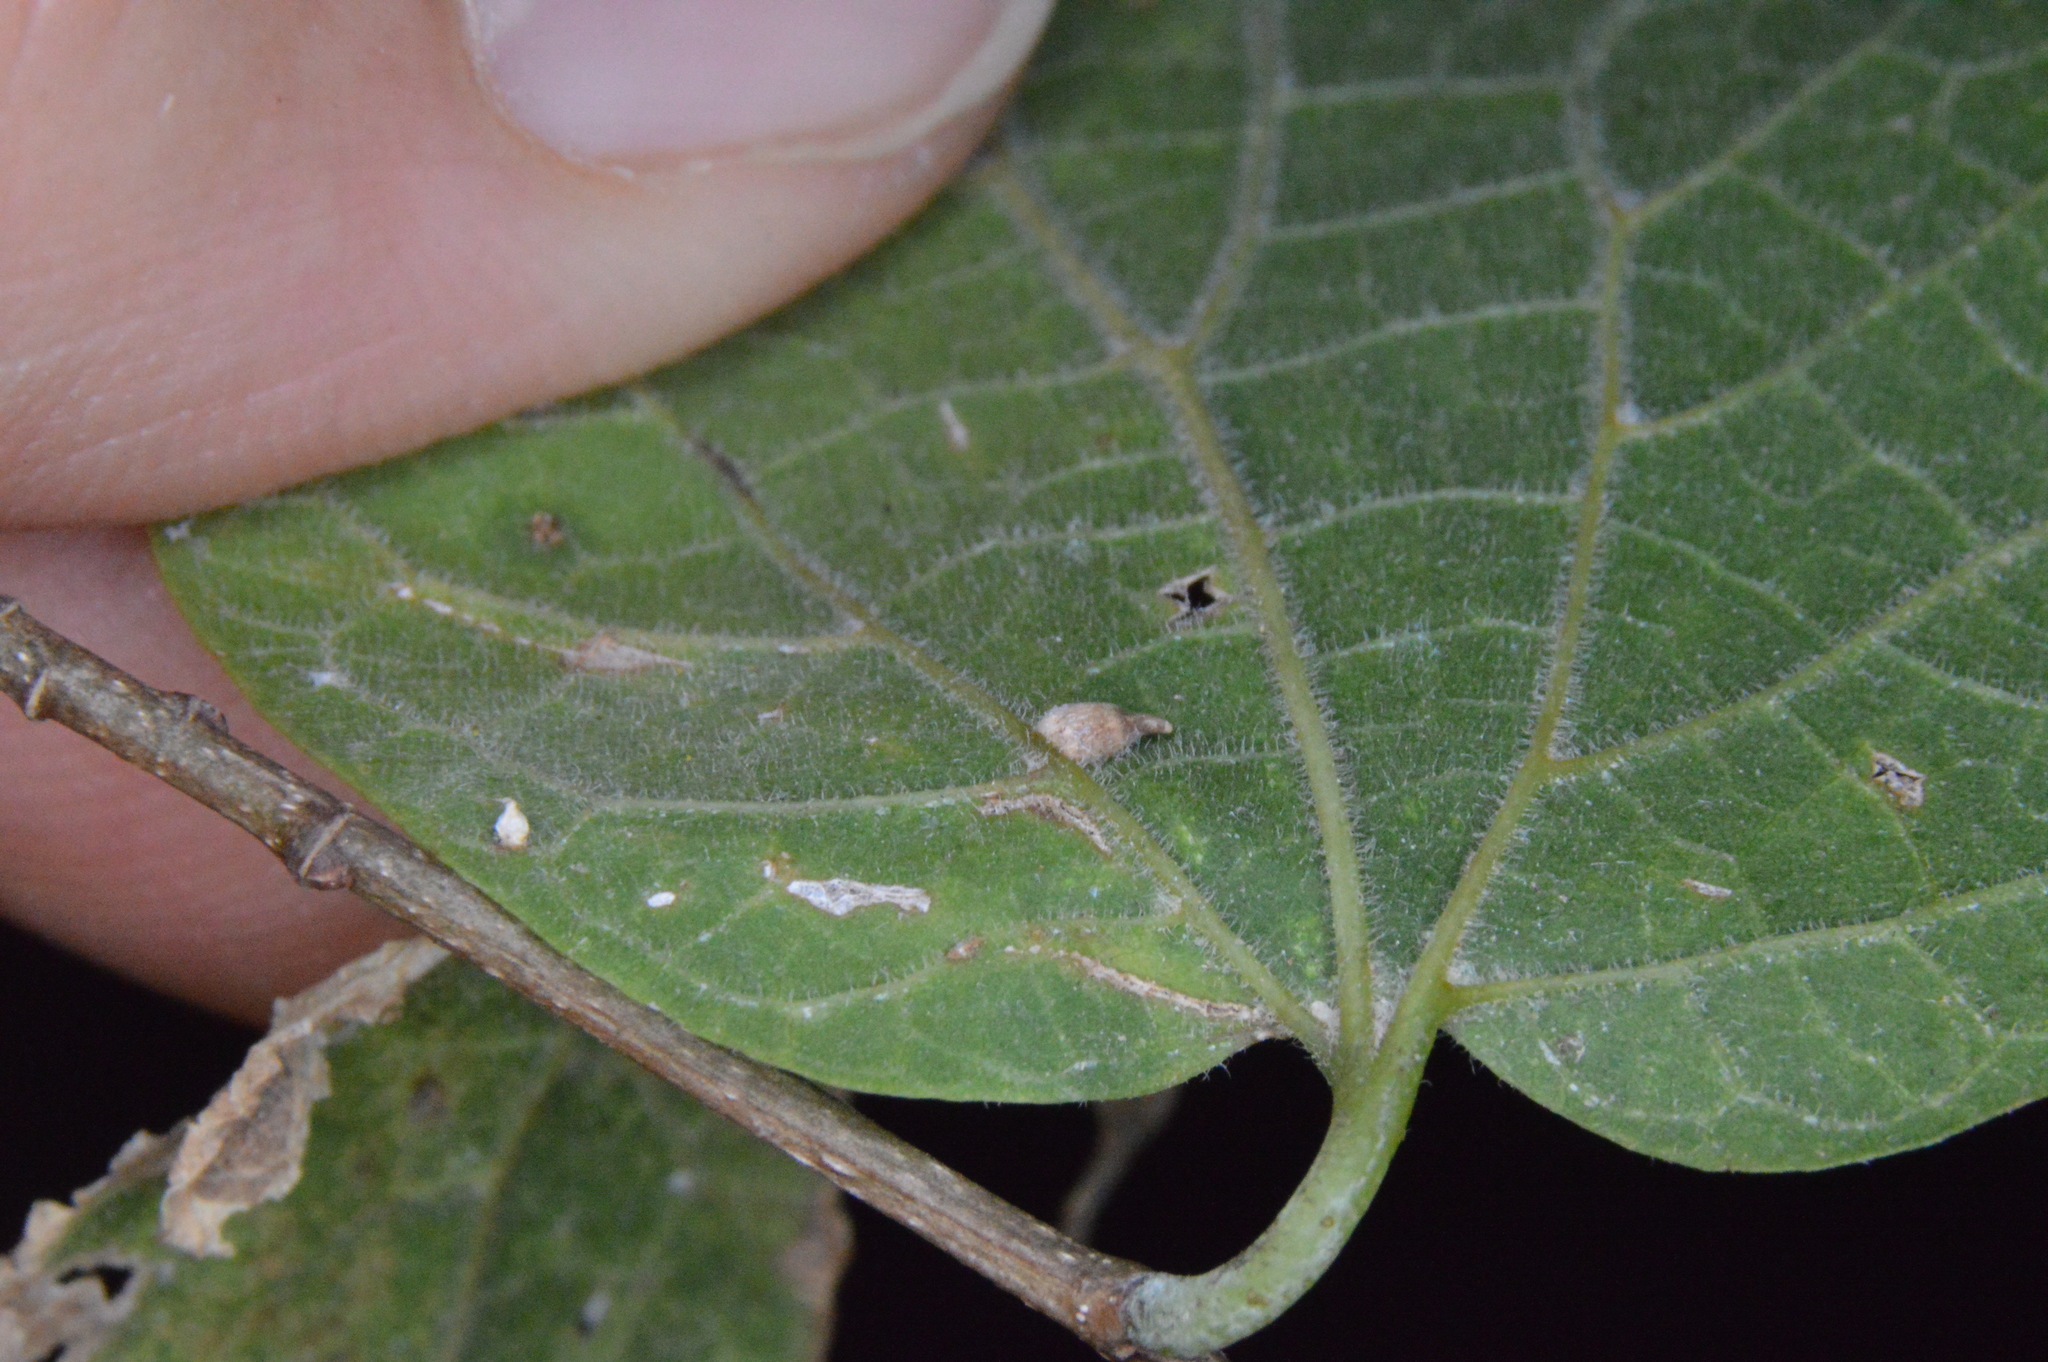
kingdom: Animalia
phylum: Arthropoda
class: Insecta
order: Diptera
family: Cecidomyiidae
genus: Celticecis
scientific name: Celticecis supina
